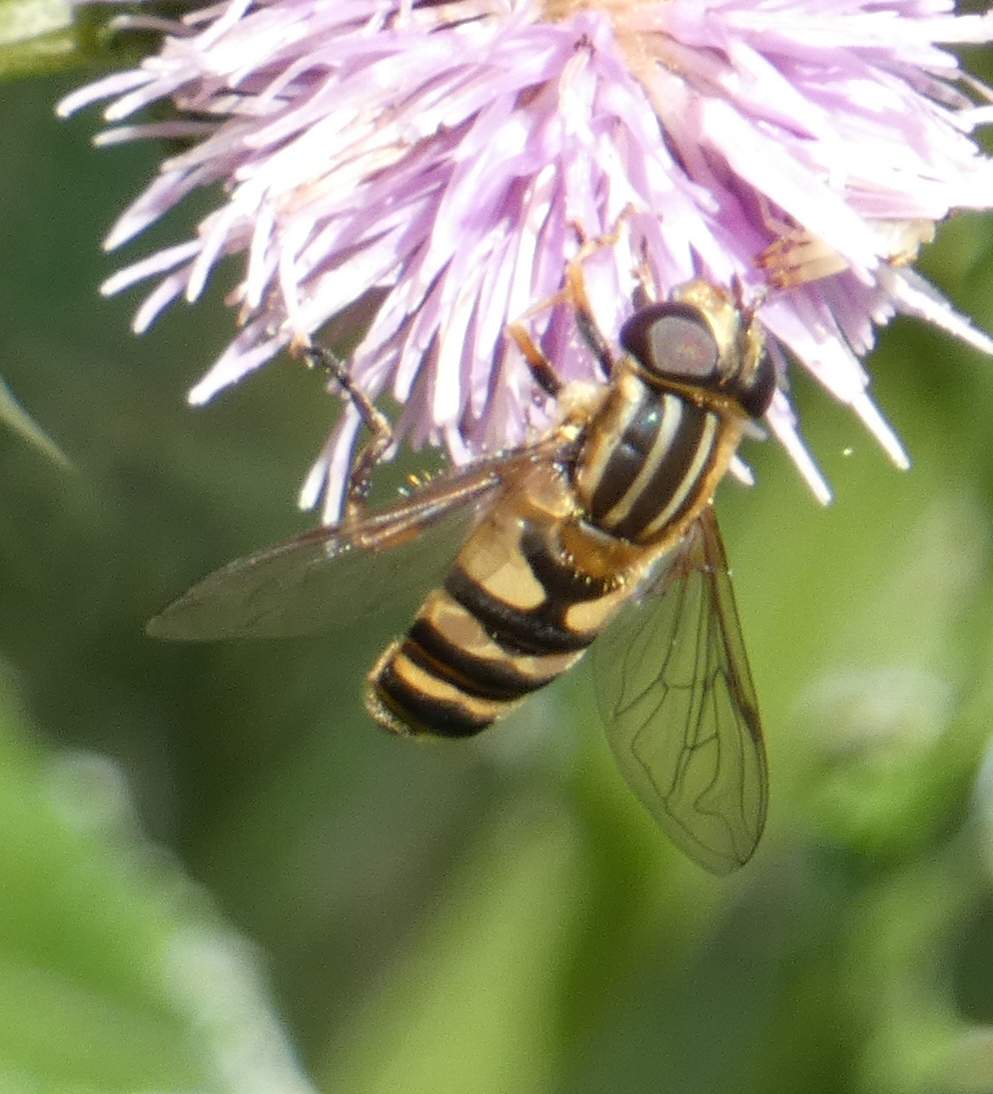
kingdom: Animalia
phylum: Arthropoda
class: Insecta
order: Diptera
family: Syrphidae
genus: Helophilus
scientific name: Helophilus fasciatus
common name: Narrow-headed marsh fly
